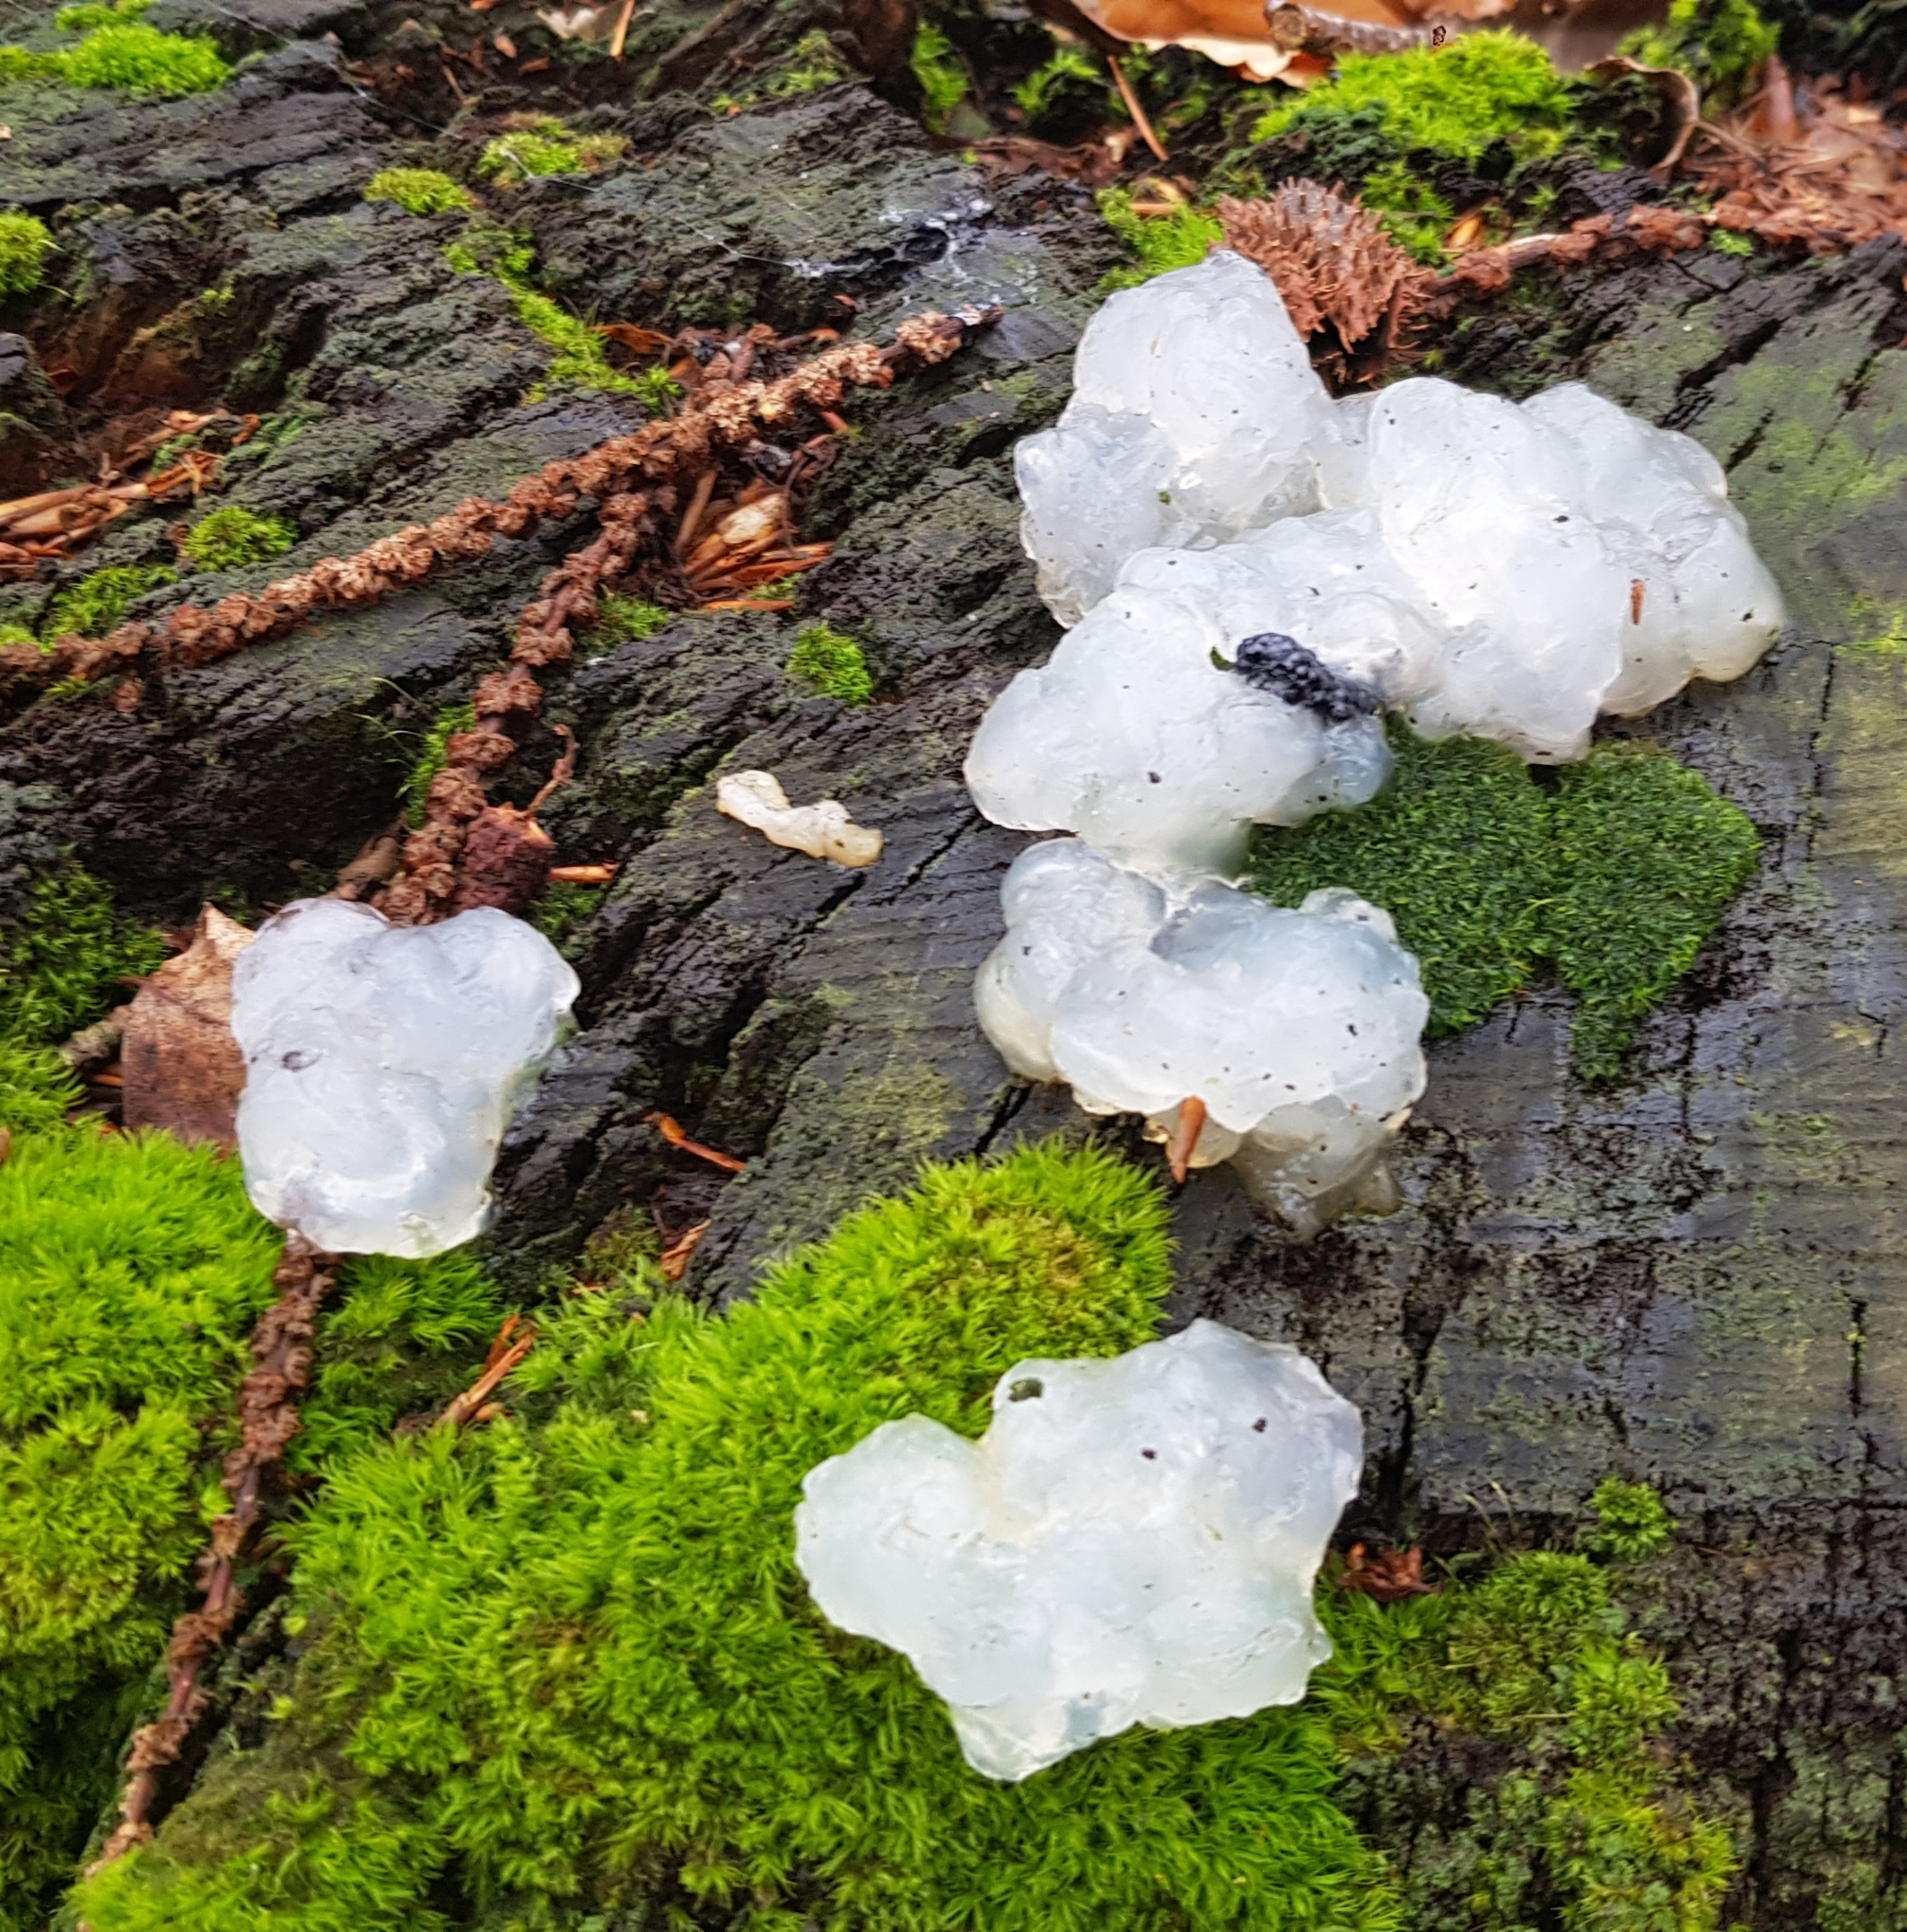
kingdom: Fungi
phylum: Basidiomycota
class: Agaricomycetes
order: Auriculariales
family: Hyaloriaceae
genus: Myxarium
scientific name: Myxarium nucleatum
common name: Crystal brain fungus
